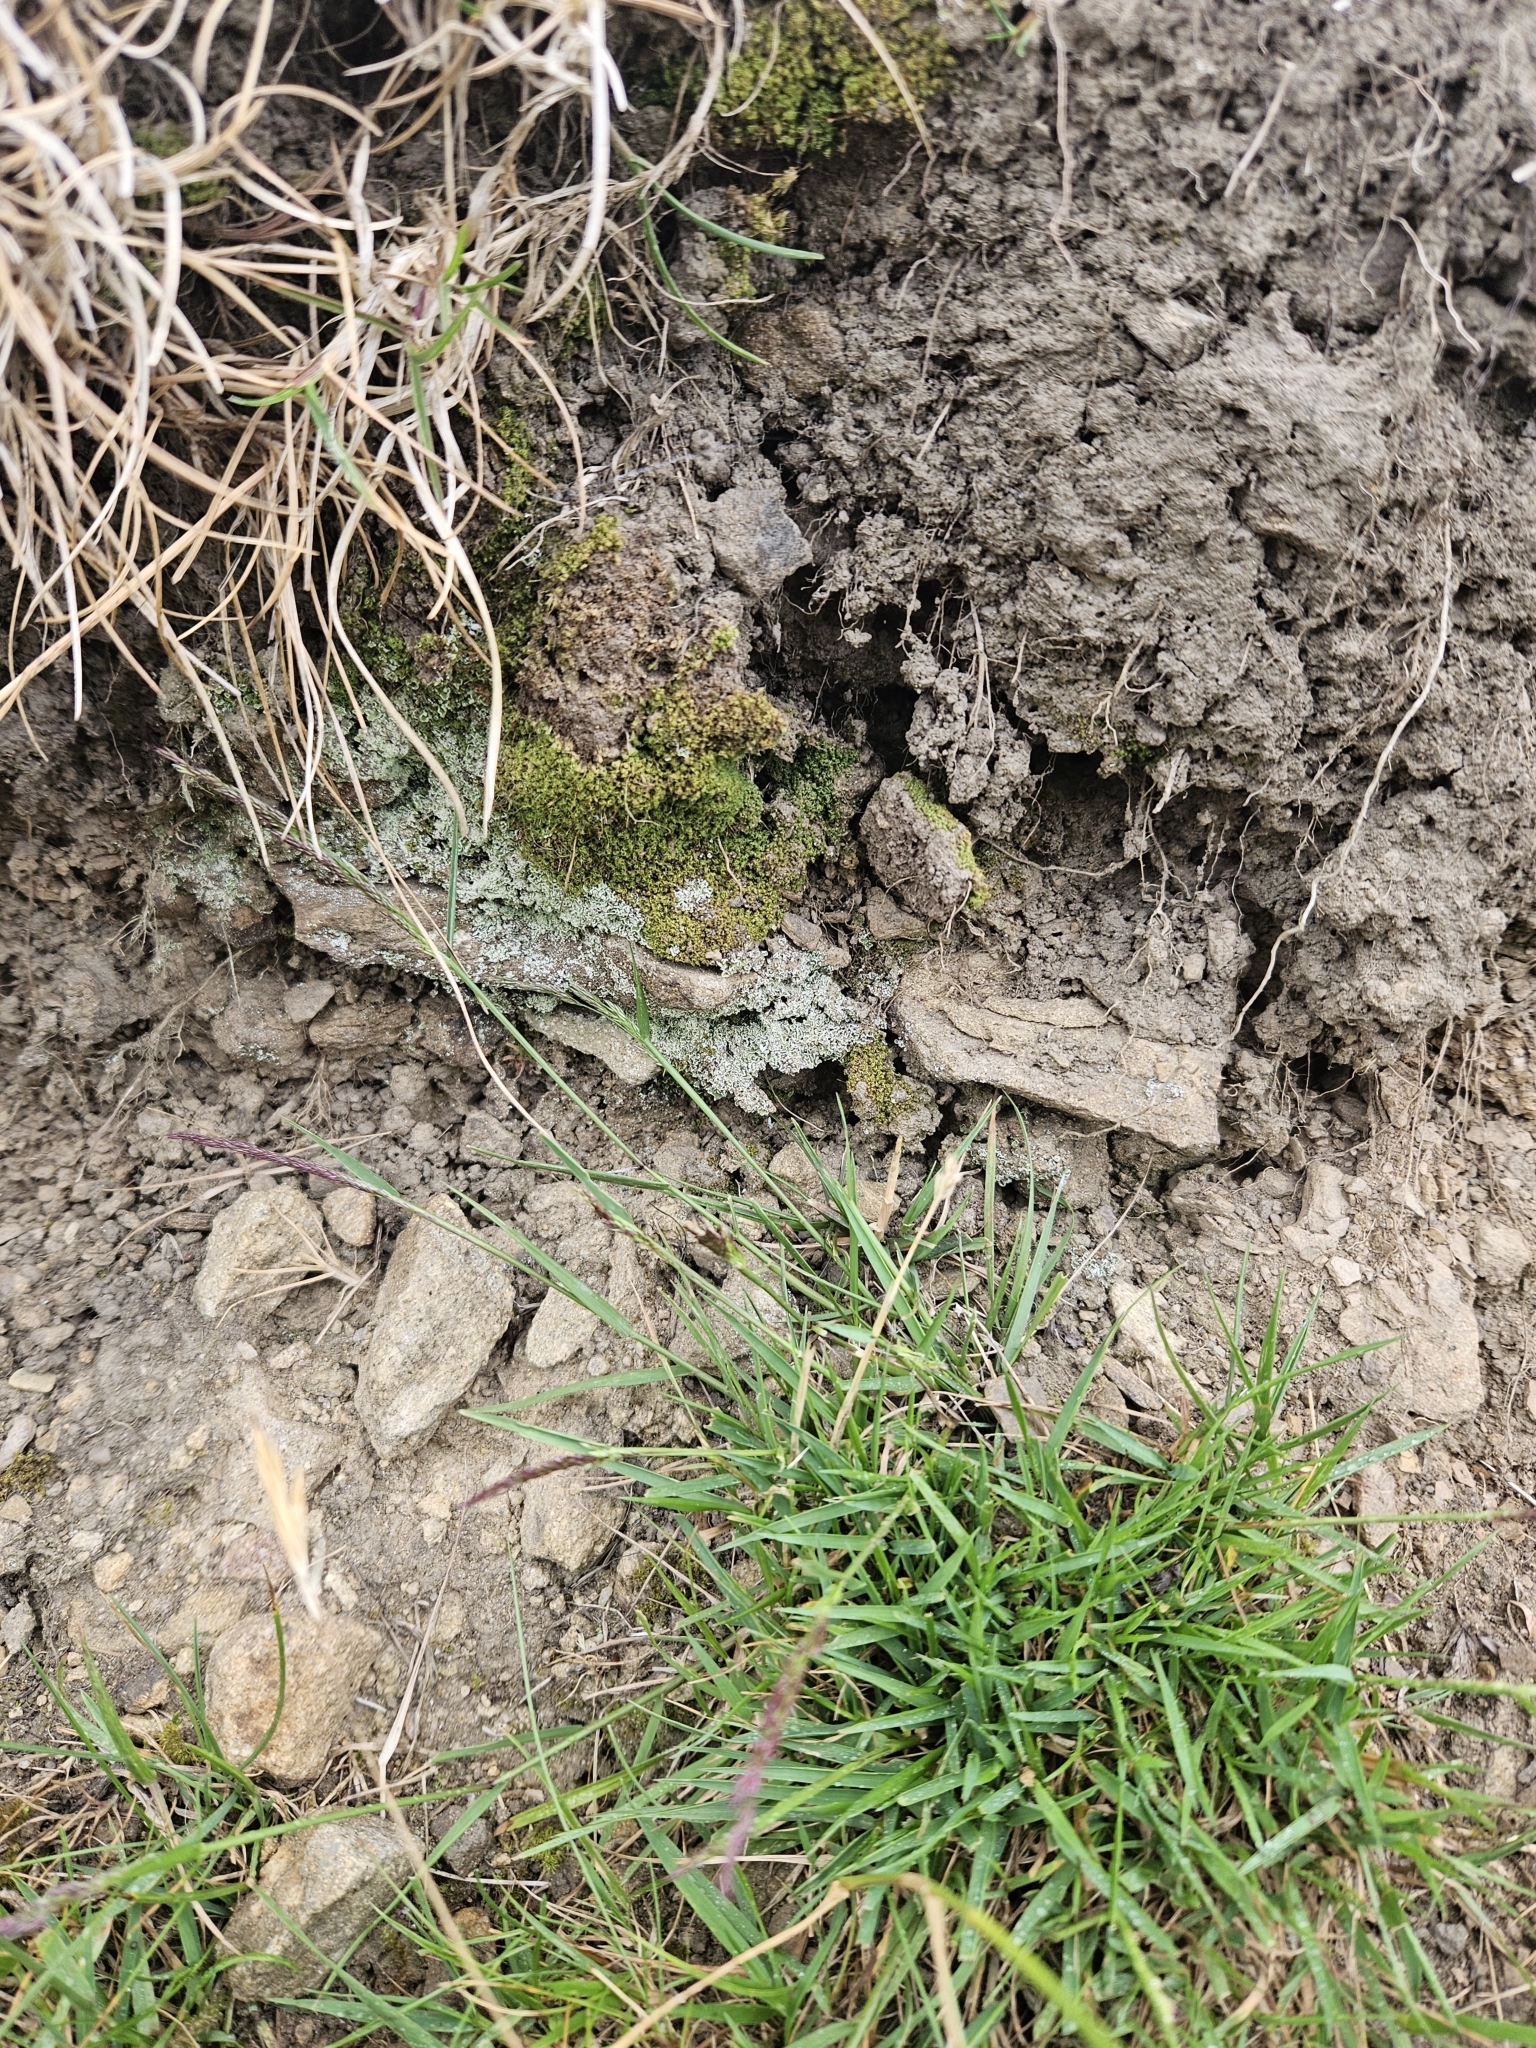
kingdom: Plantae
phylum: Bryophyta
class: Bryopsida
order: Pottiales
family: Pottiaceae
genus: Weissia
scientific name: Weissia controversa
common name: Green-tufted stubble moss
